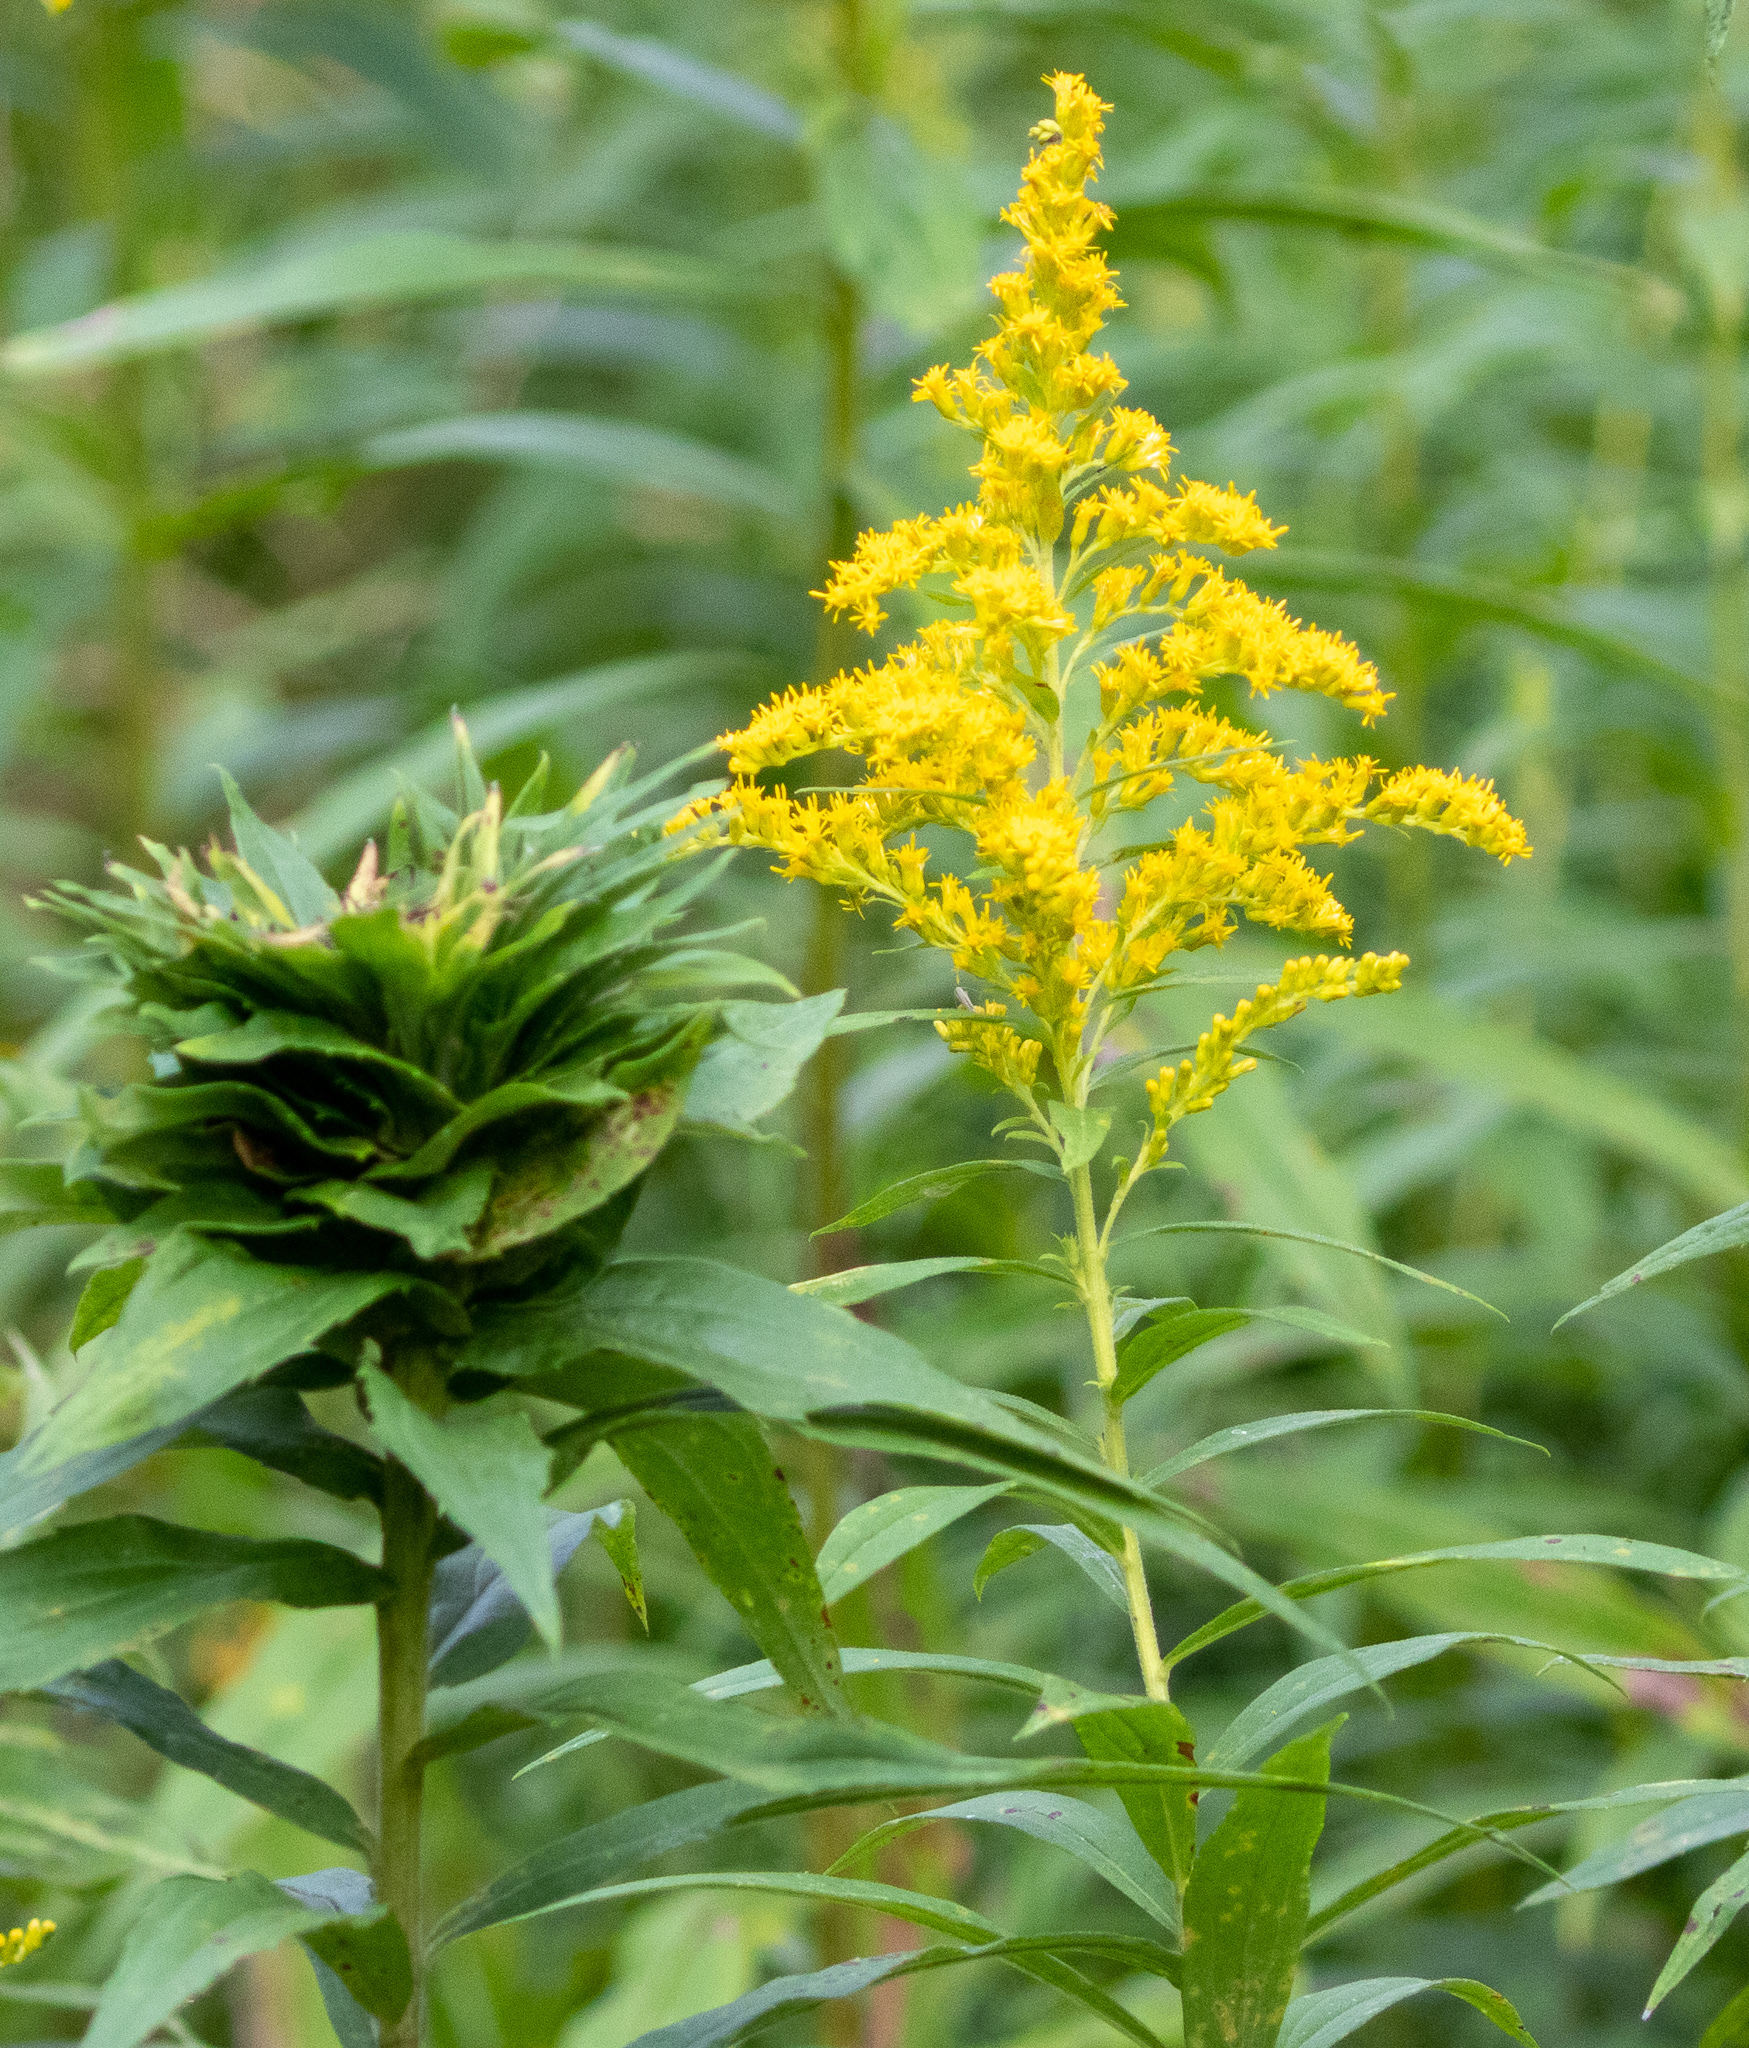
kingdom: Animalia
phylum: Arthropoda
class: Insecta
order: Diptera
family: Cecidomyiidae
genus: Rhopalomyia
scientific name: Rhopalomyia solidaginis
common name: Goldenrod bunch gall midge
